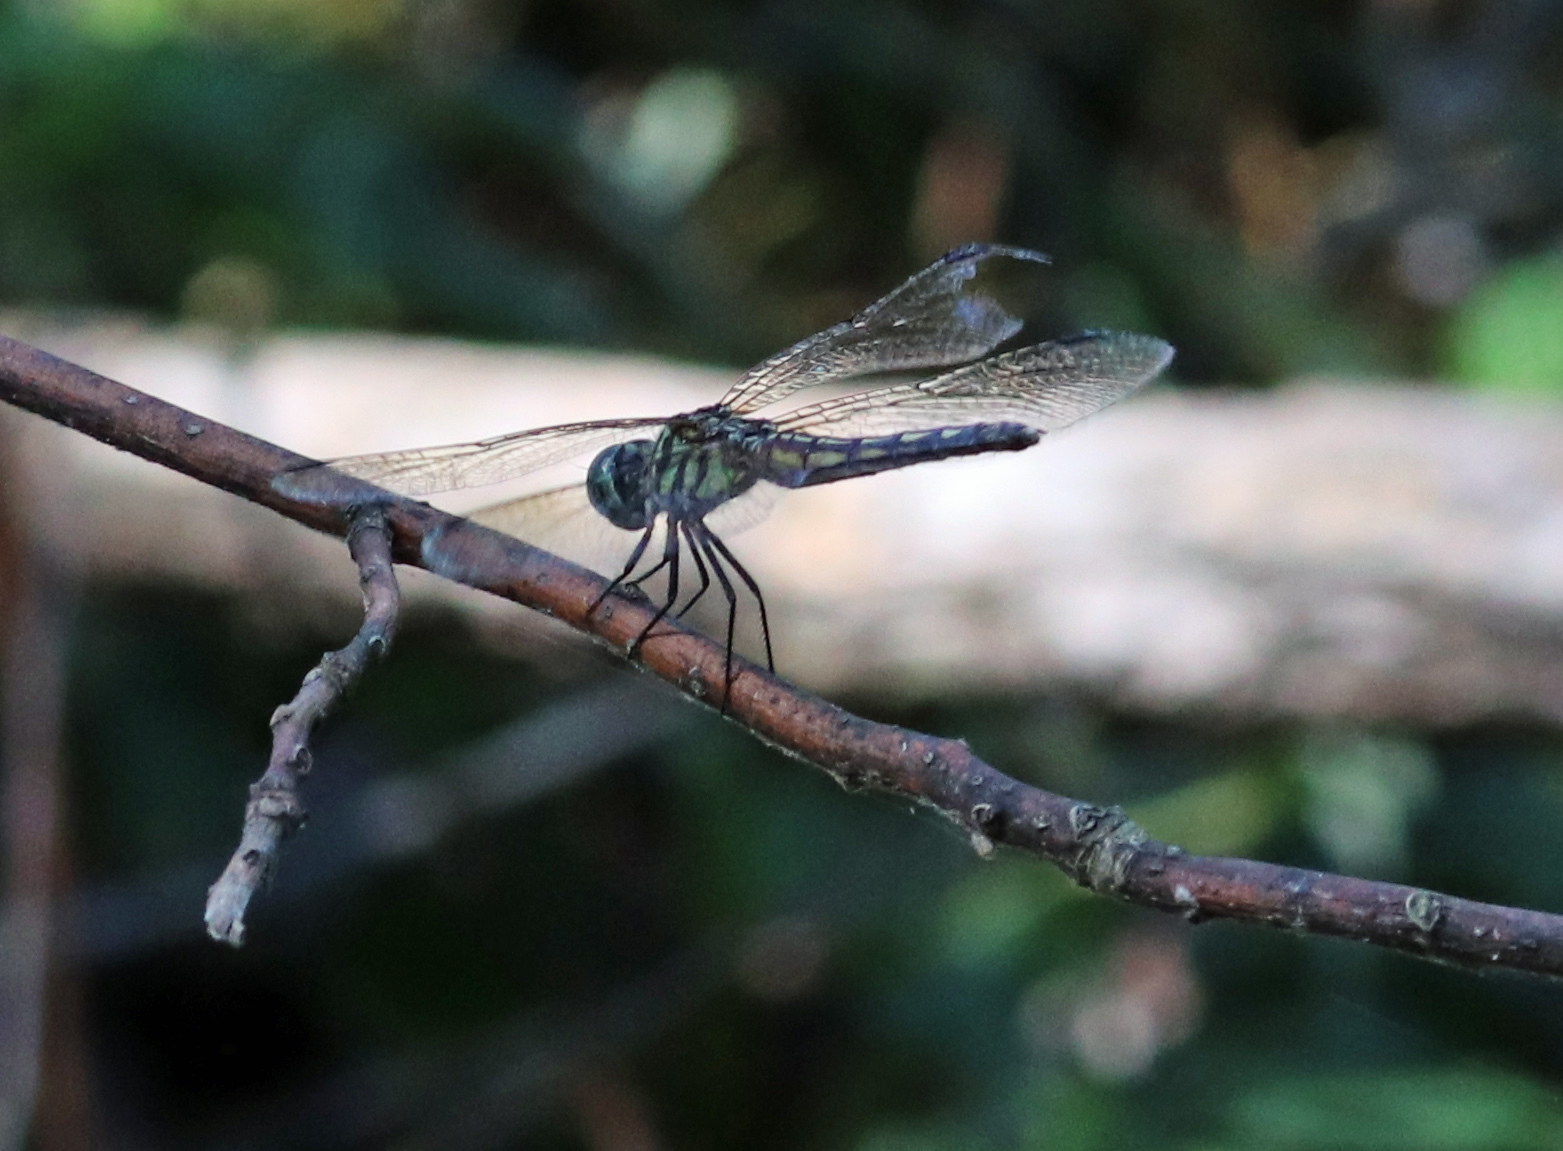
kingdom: Animalia
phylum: Arthropoda
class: Insecta
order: Odonata
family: Libellulidae
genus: Pachydiplax
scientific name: Pachydiplax longipennis
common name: Blue dasher
